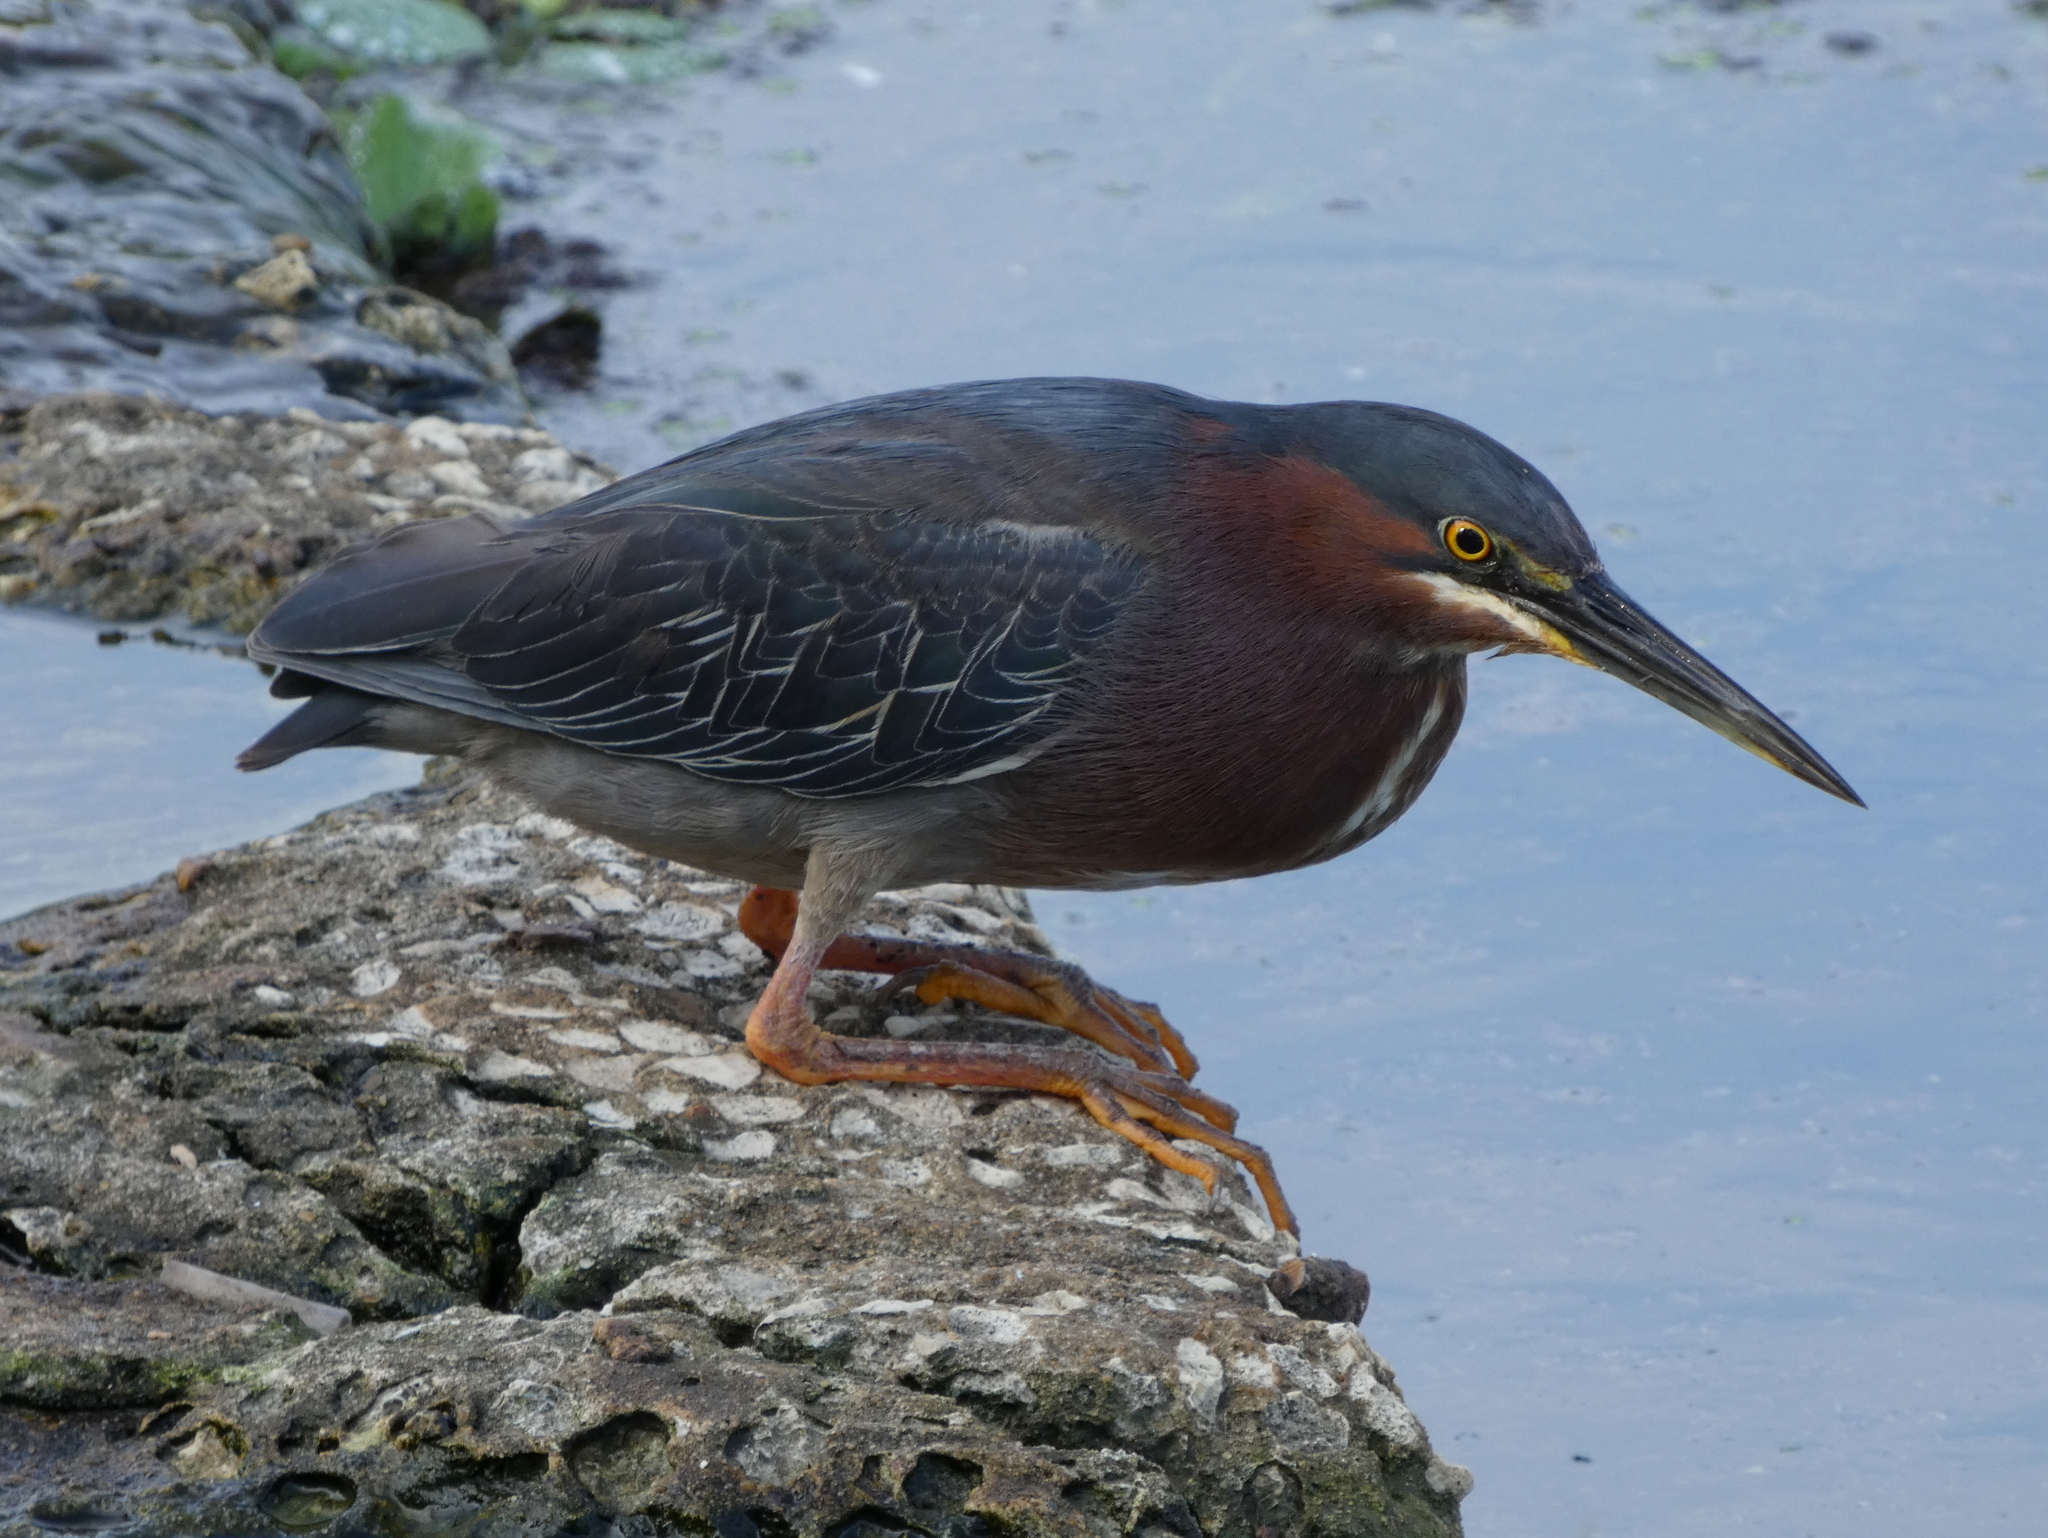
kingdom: Animalia
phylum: Chordata
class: Aves
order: Pelecaniformes
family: Ardeidae
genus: Butorides
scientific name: Butorides virescens
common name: Green heron
